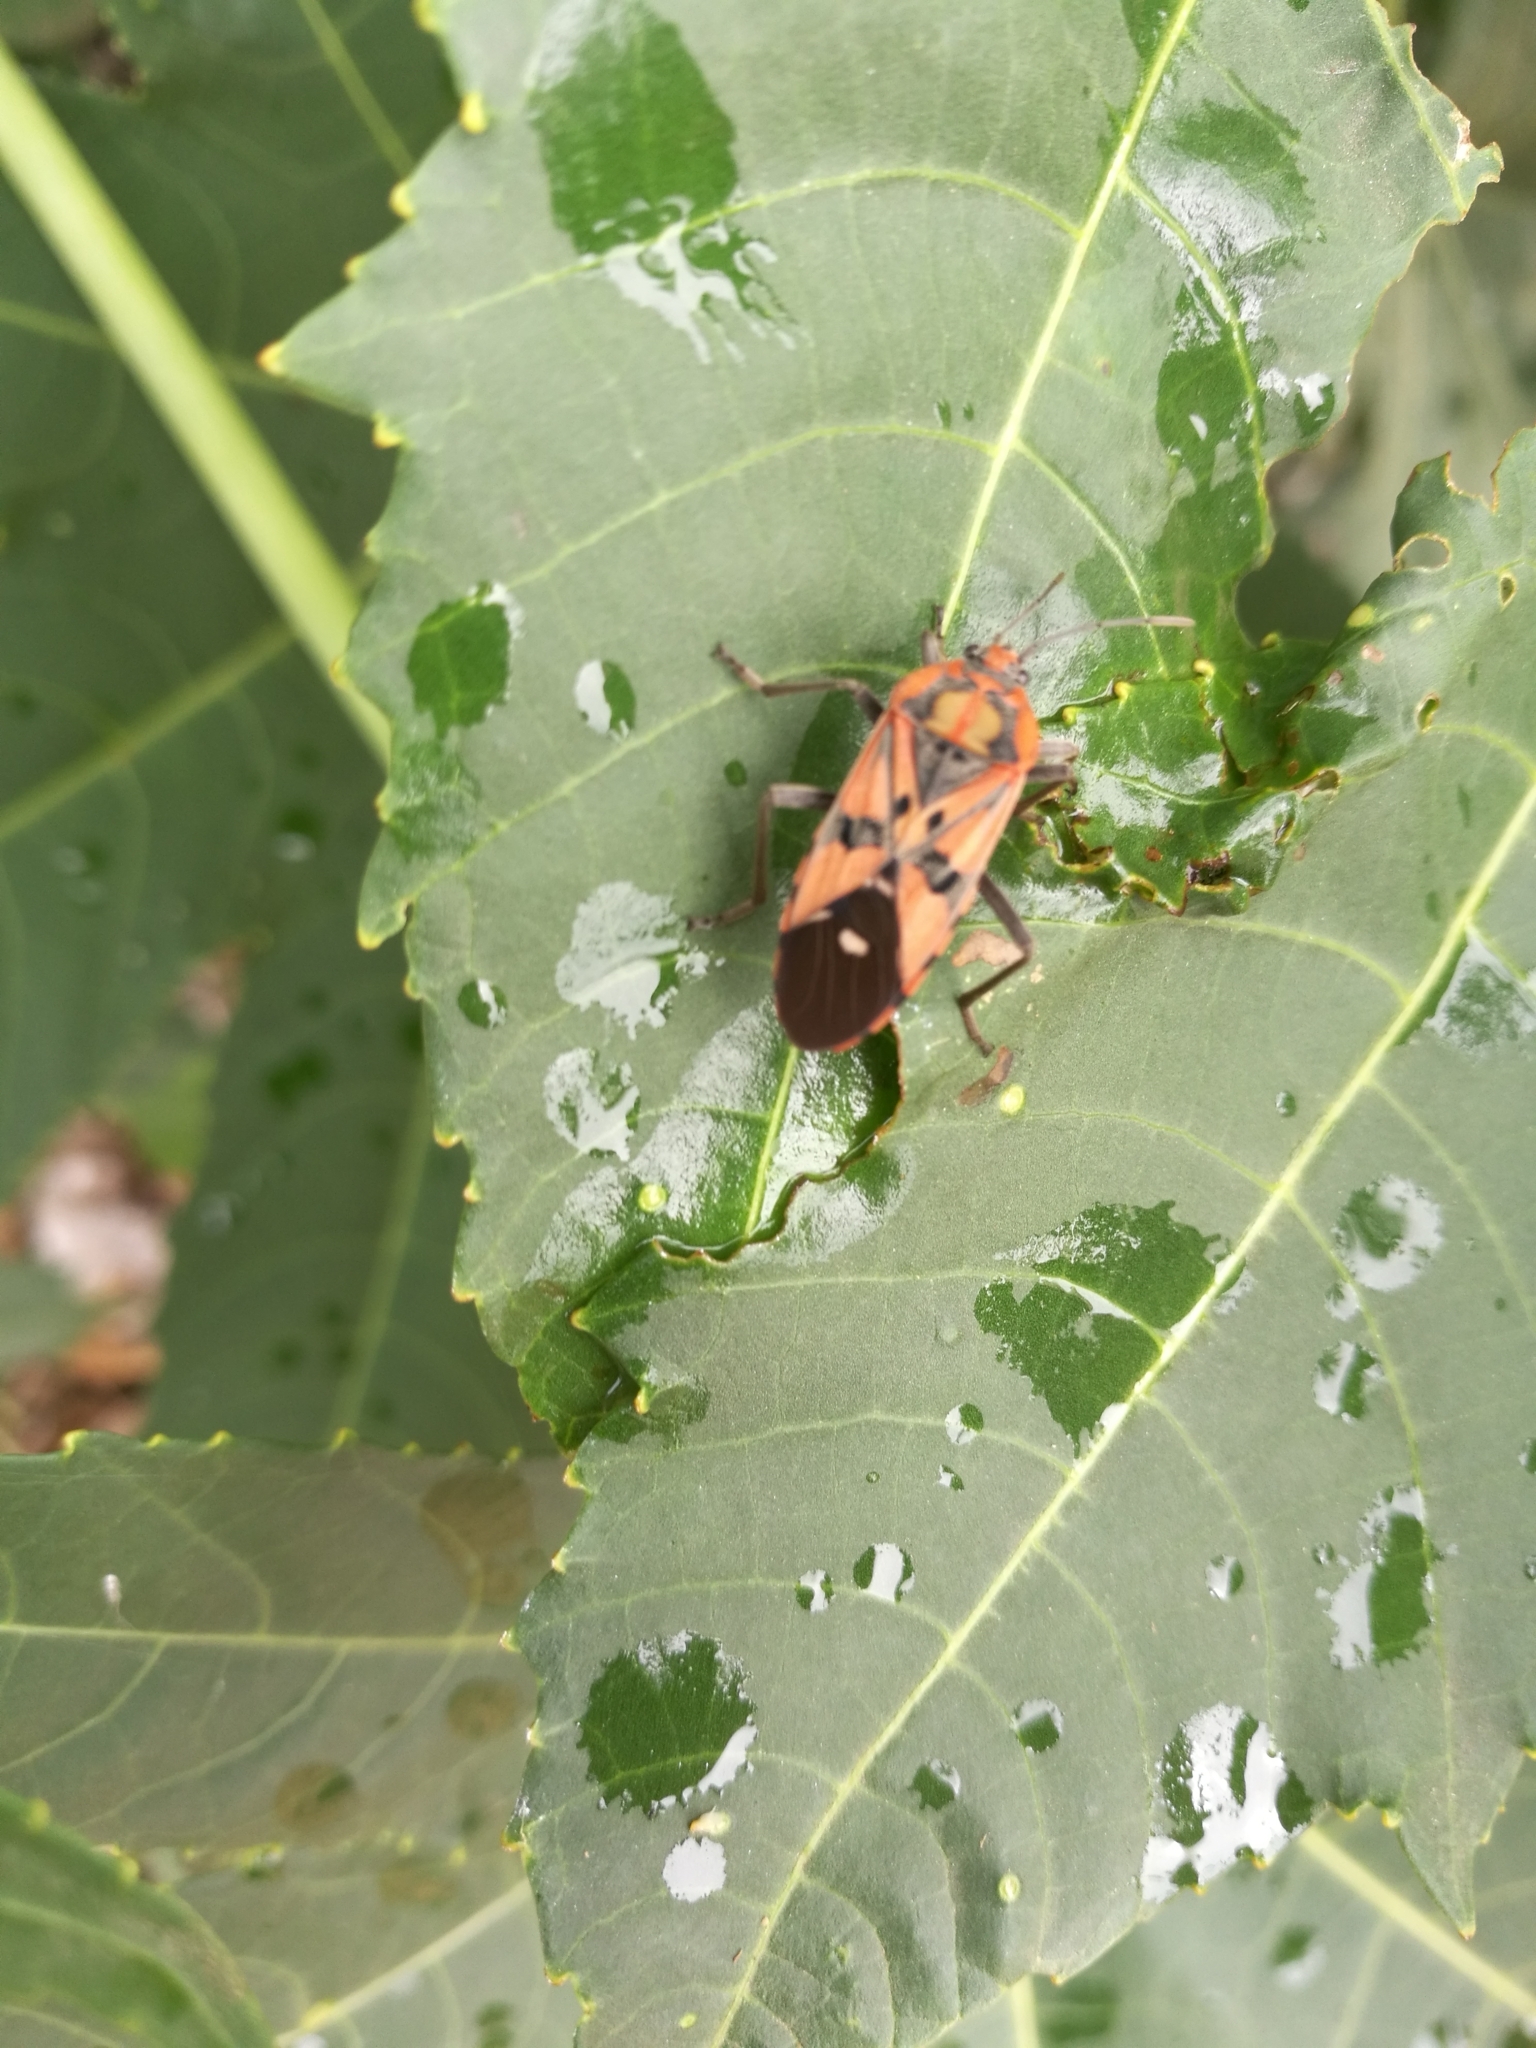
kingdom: Animalia
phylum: Arthropoda
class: Insecta
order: Hemiptera
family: Lygaeidae
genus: Spilostethus
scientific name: Spilostethus pandurus
